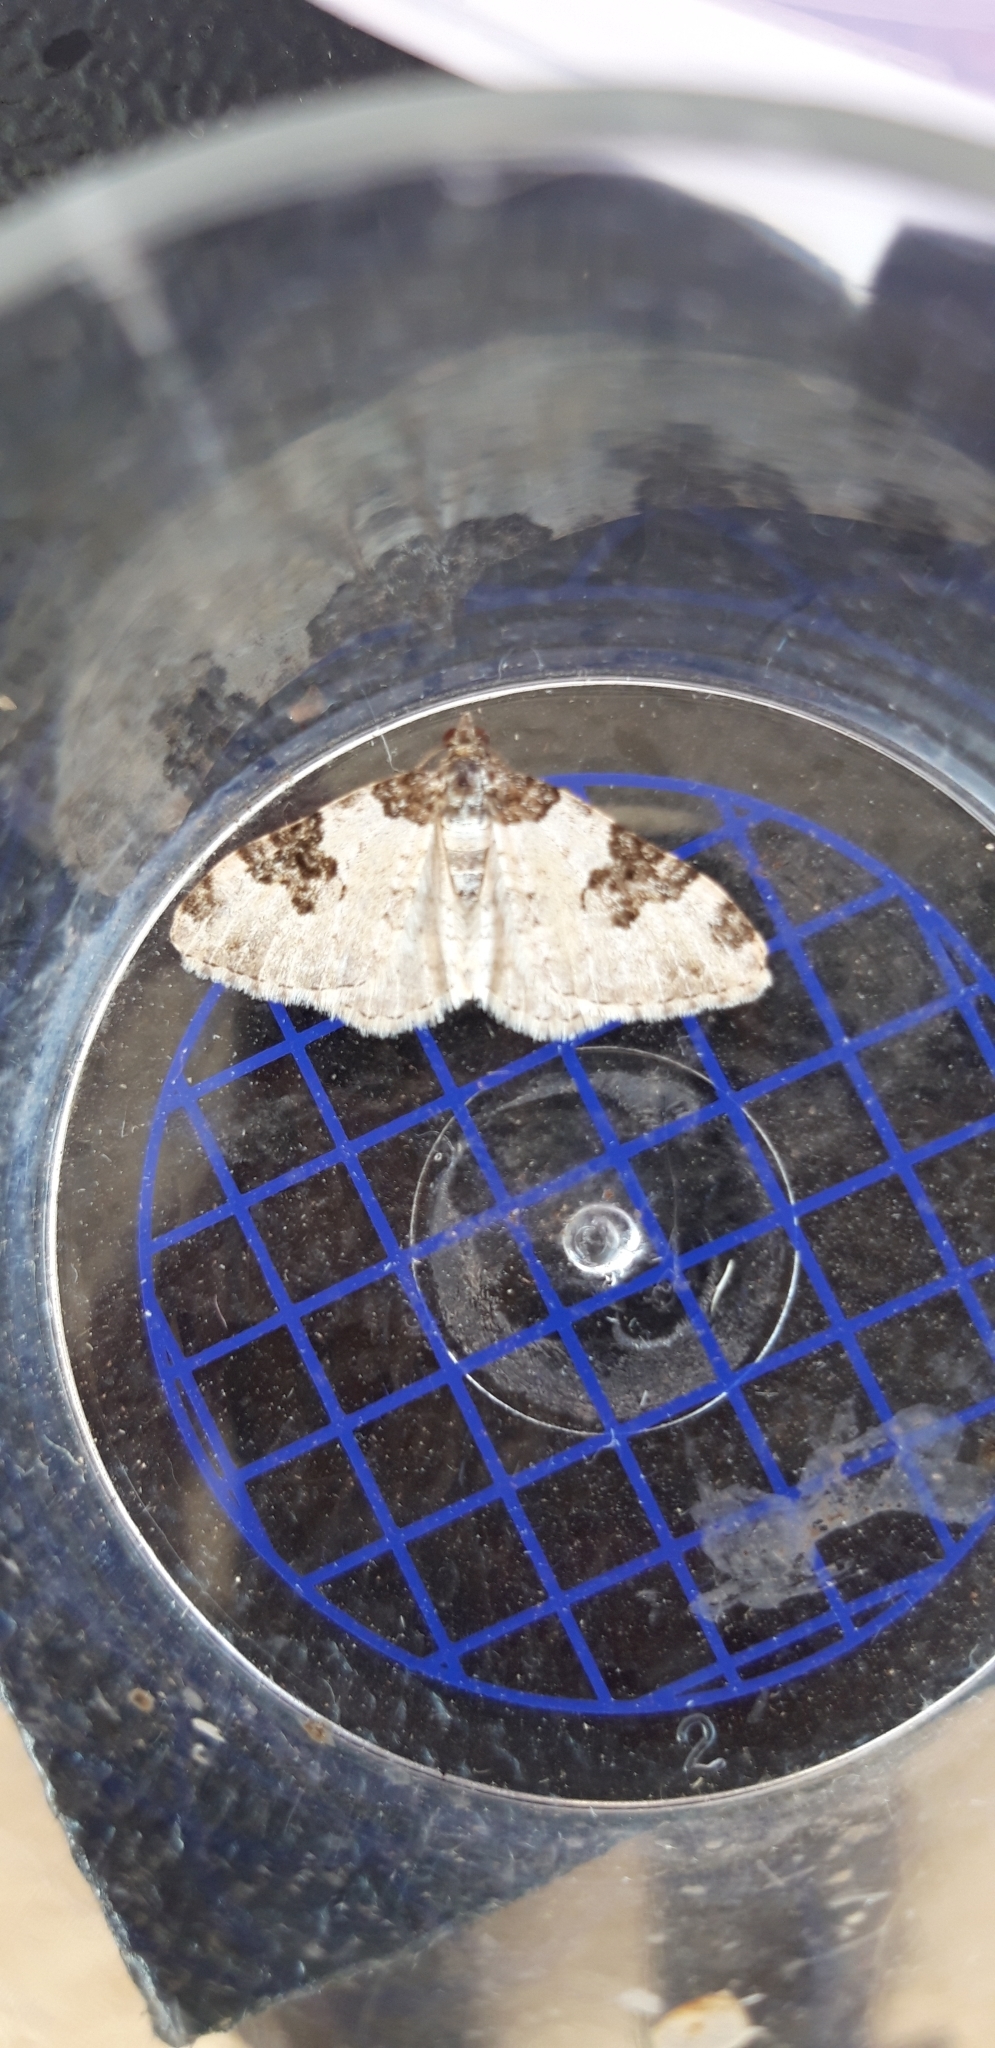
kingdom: Animalia
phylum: Arthropoda
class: Insecta
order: Lepidoptera
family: Geometridae
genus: Xanthorhoe
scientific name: Xanthorhoe fluctuata
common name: Garden carpet
